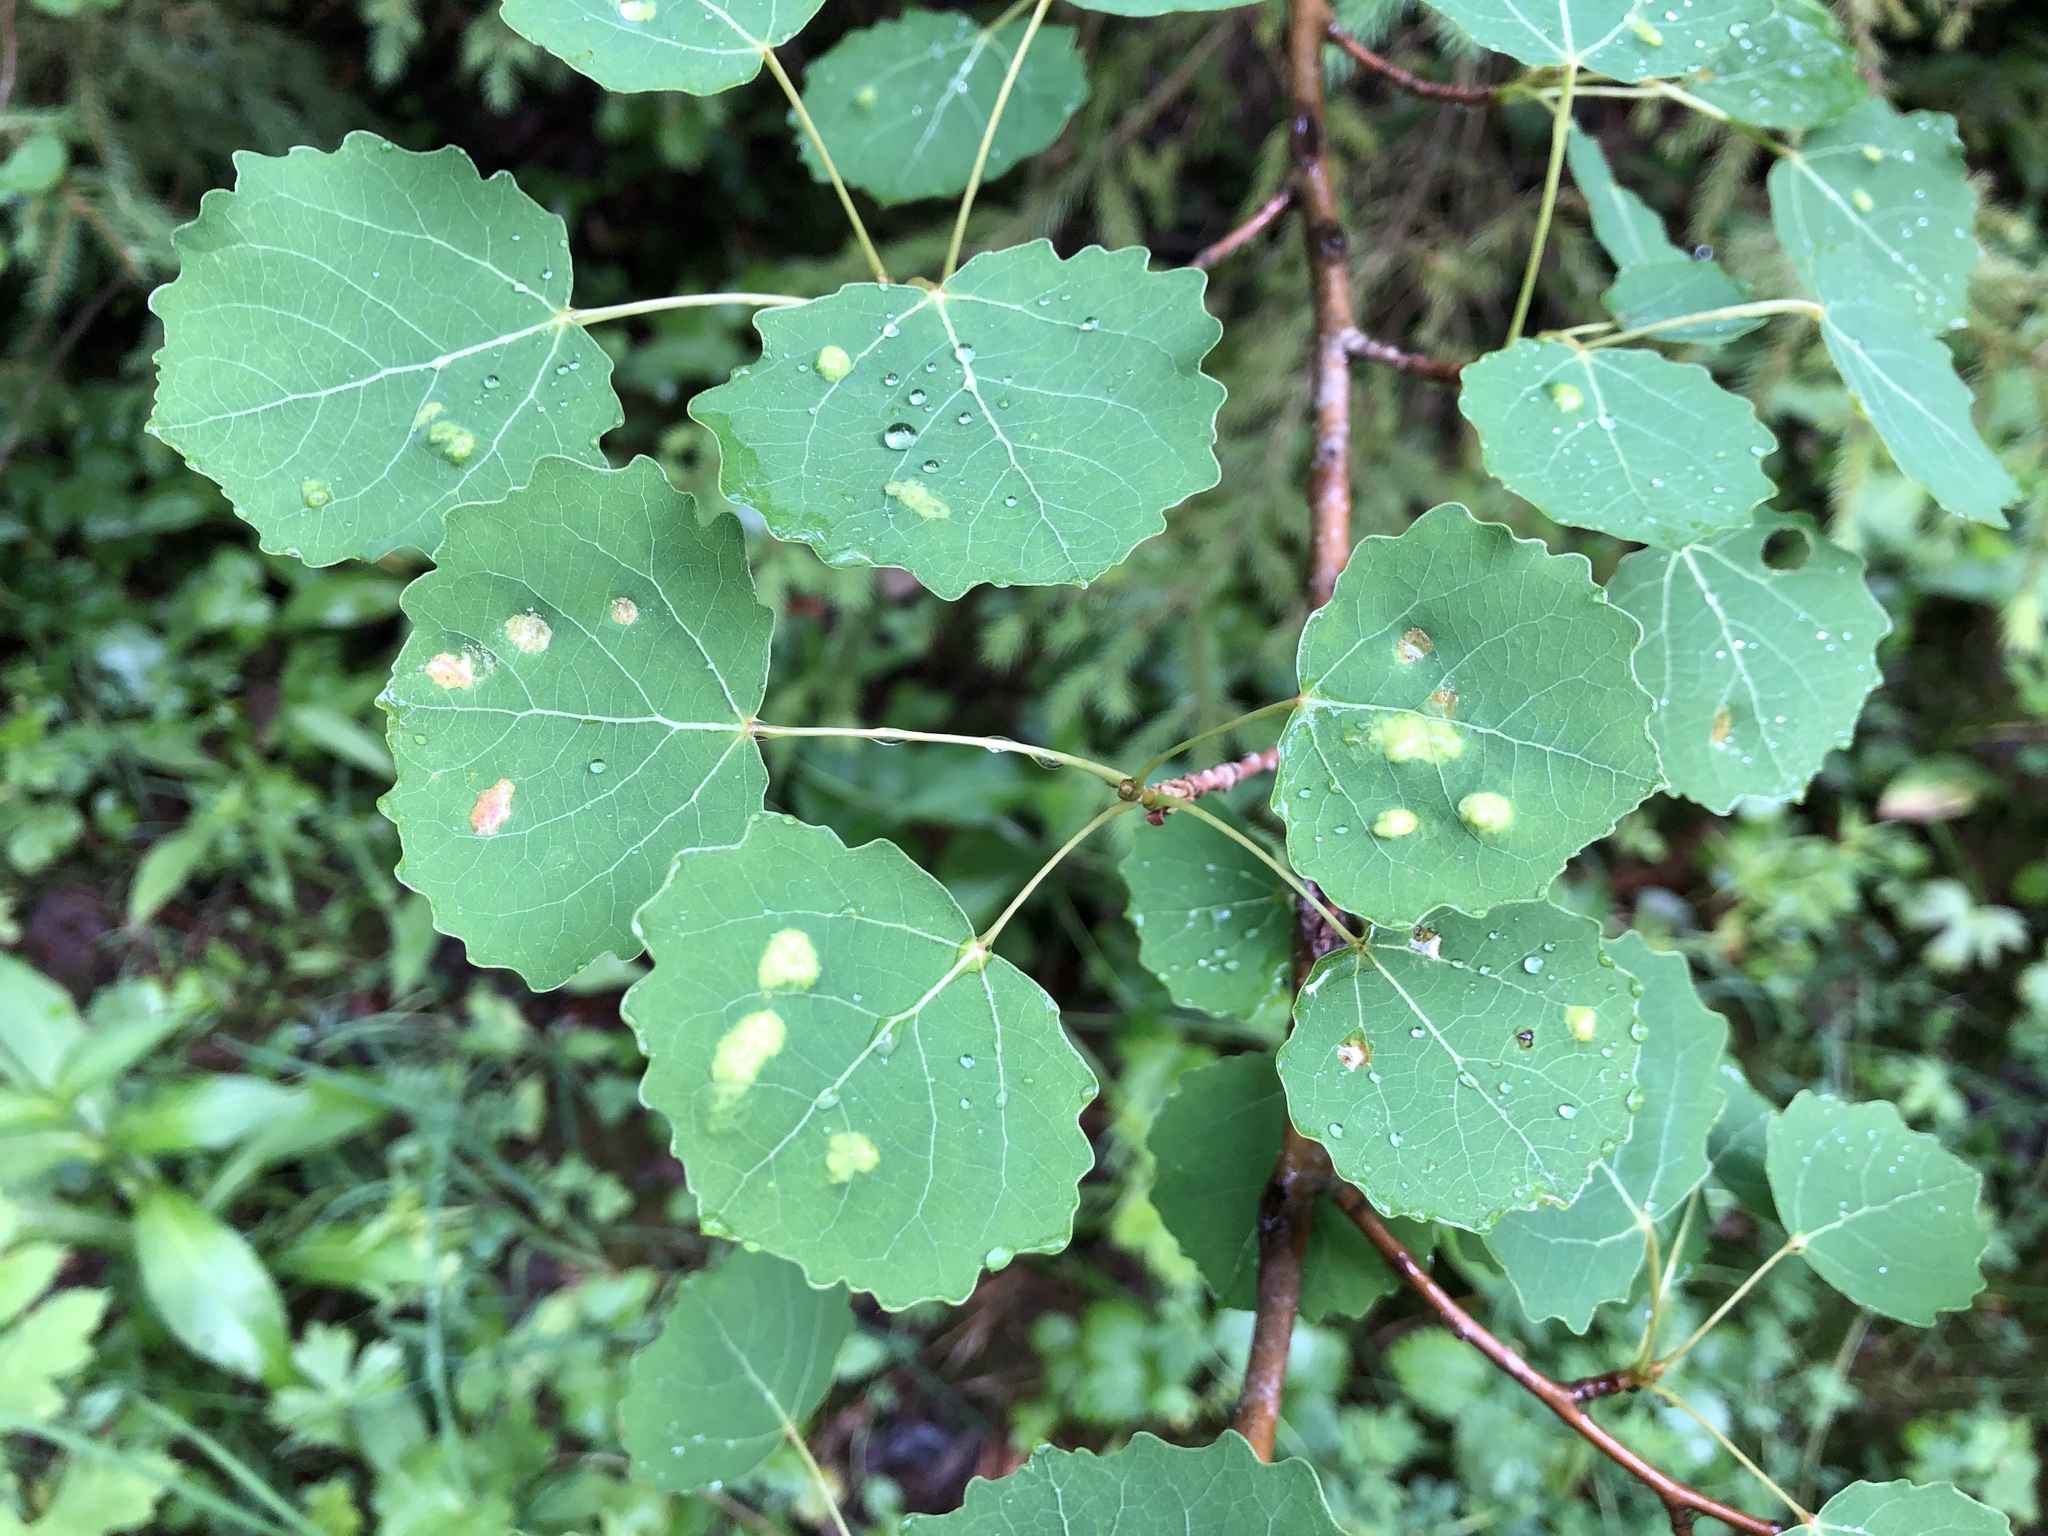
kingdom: Plantae
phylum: Tracheophyta
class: Magnoliopsida
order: Malpighiales
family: Salicaceae
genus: Populus
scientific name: Populus tremula
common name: European aspen
